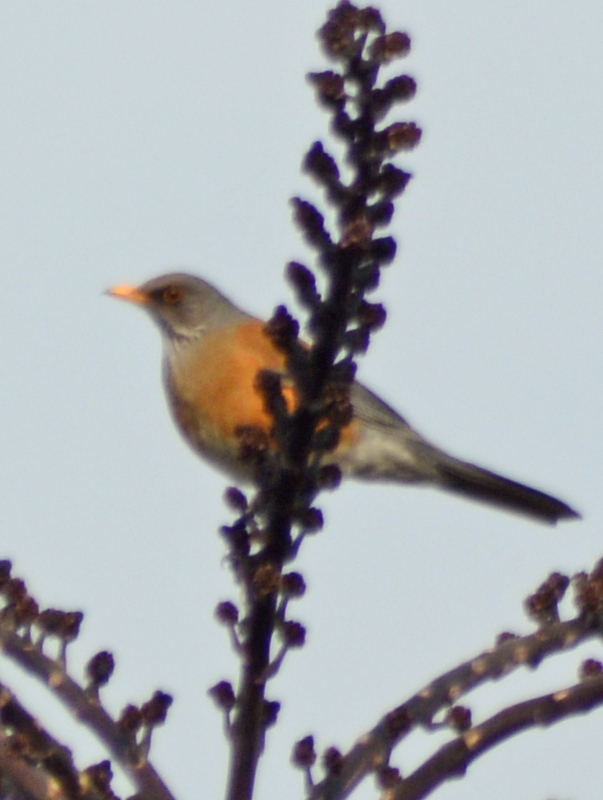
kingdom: Animalia
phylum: Chordata
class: Aves
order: Passeriformes
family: Turdidae
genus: Turdus
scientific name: Turdus rufopalliatus
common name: Rufous-backed robin
